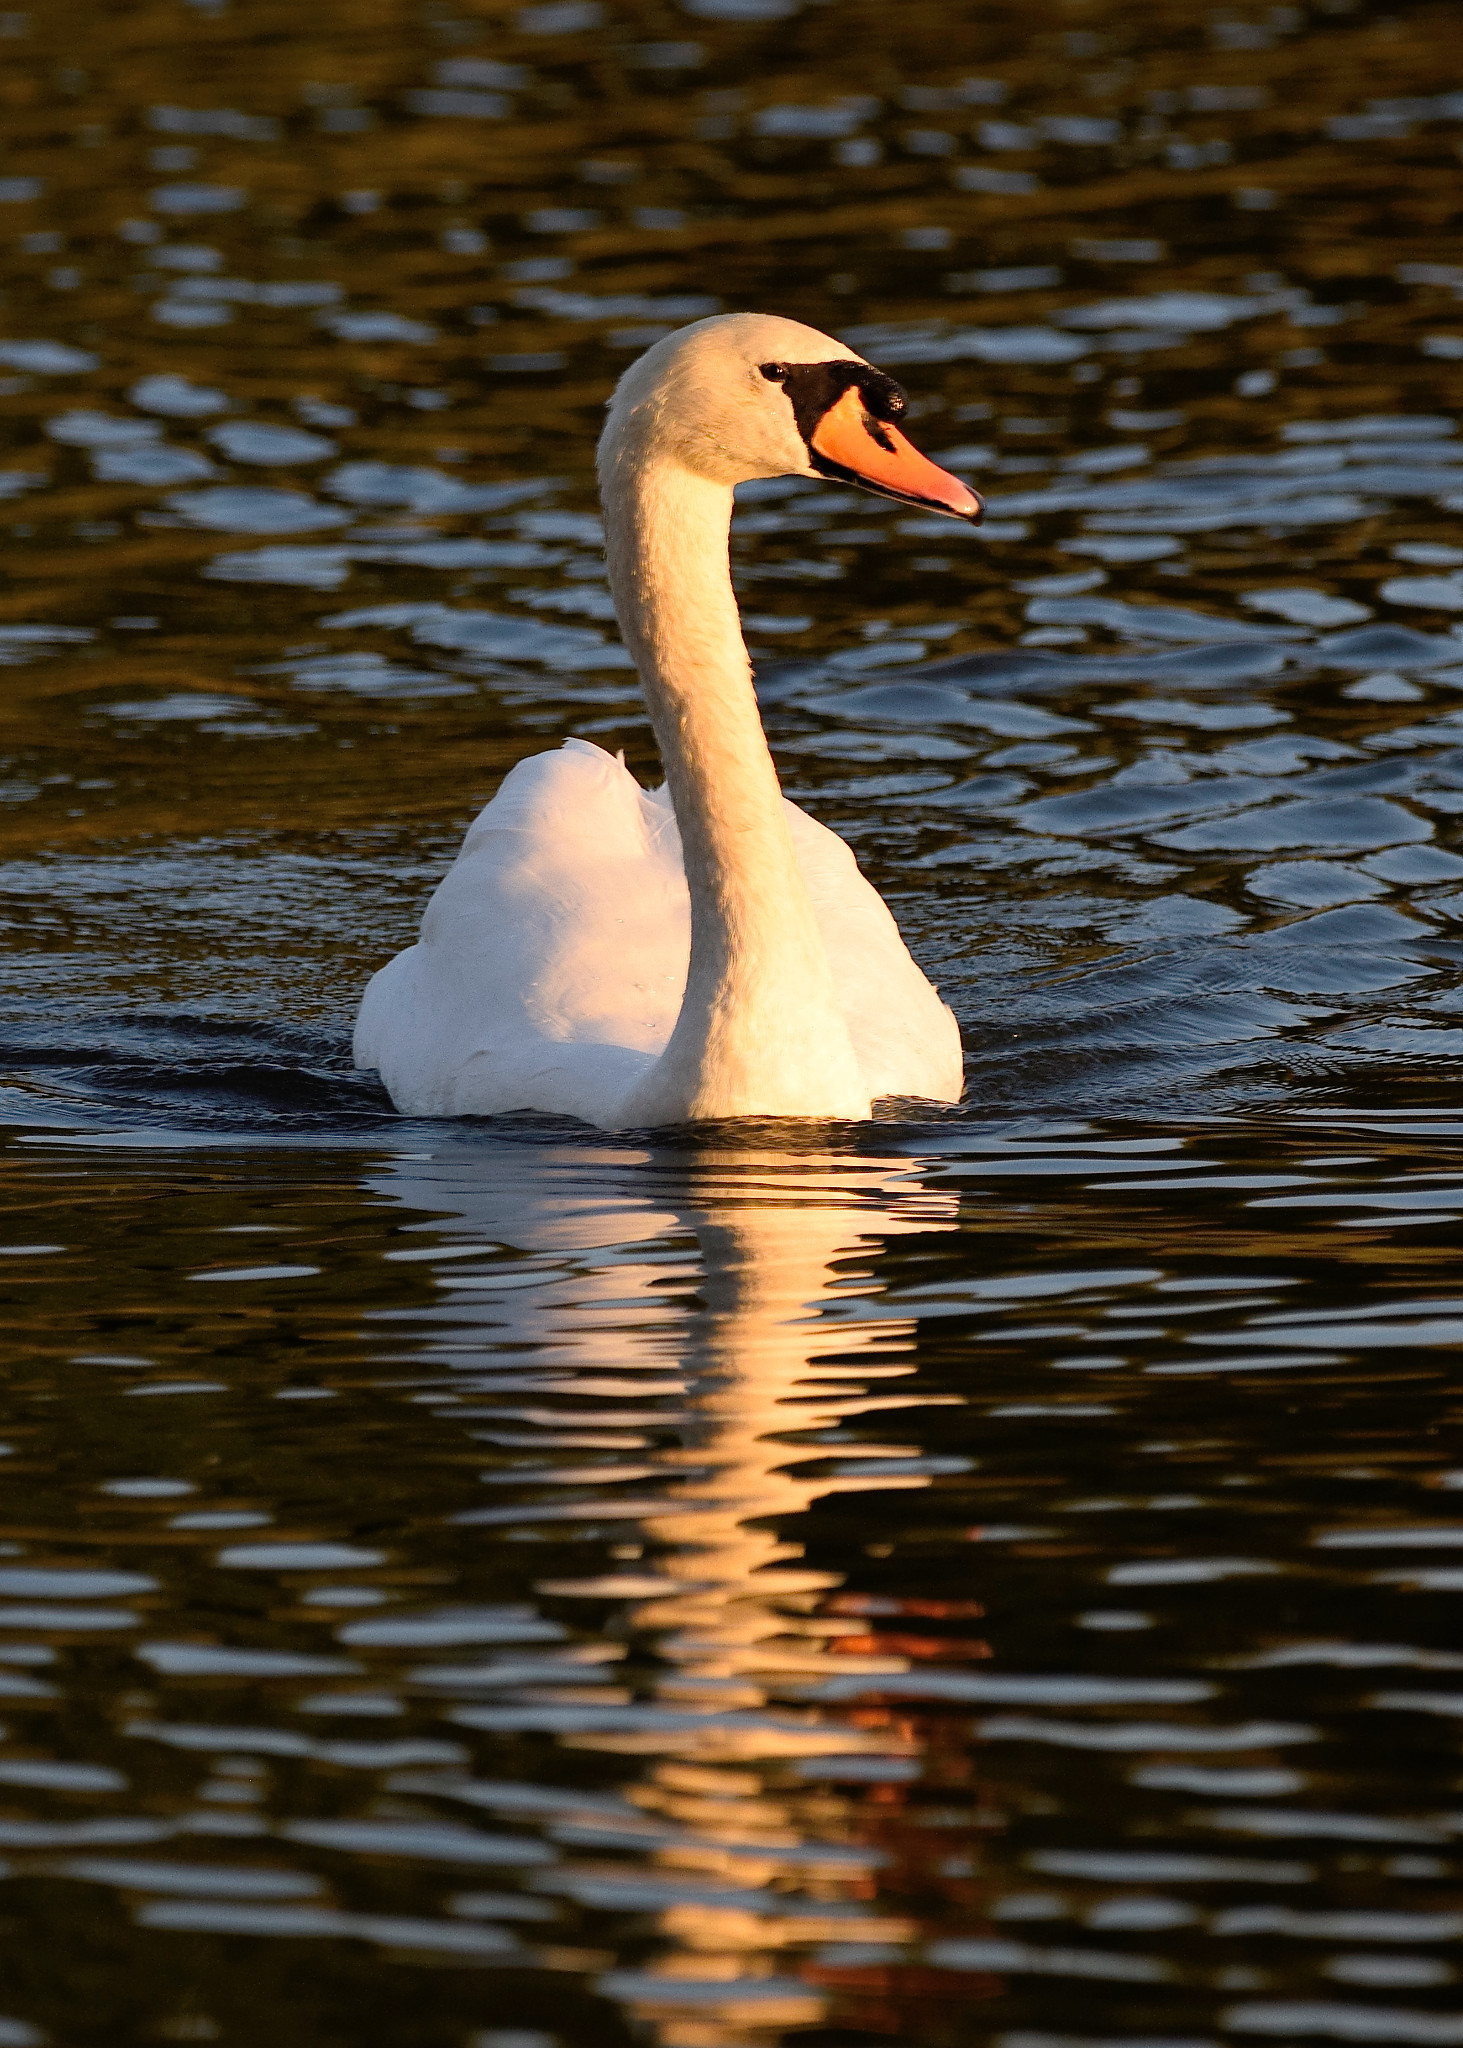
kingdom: Animalia
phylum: Chordata
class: Aves
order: Anseriformes
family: Anatidae
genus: Cygnus
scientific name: Cygnus olor
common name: Mute swan
